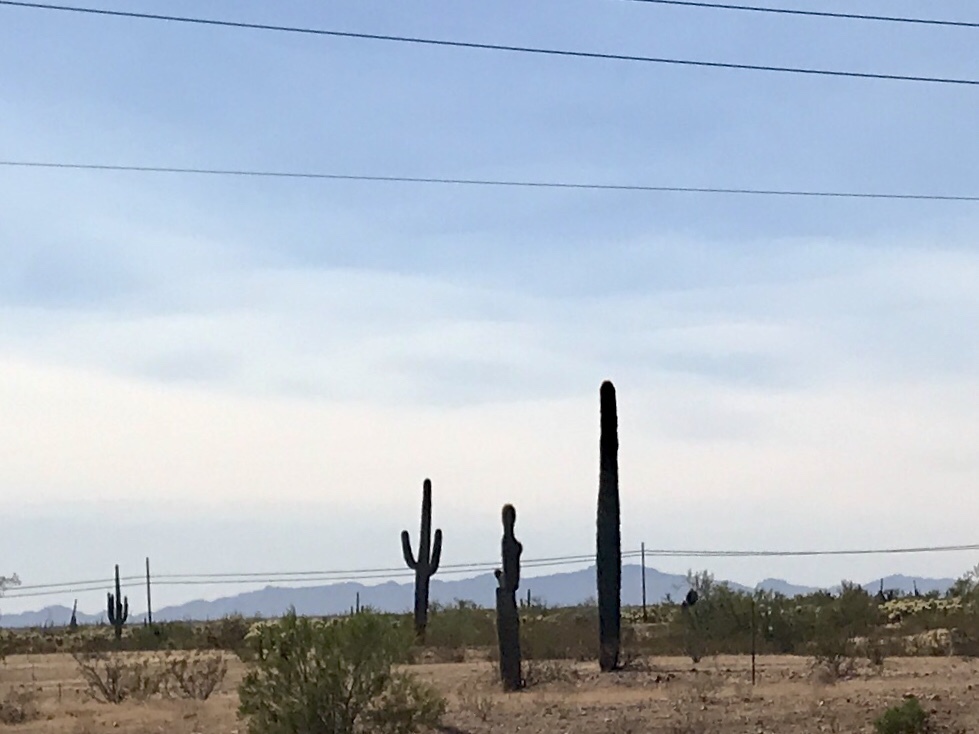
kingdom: Plantae
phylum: Tracheophyta
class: Magnoliopsida
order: Caryophyllales
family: Cactaceae
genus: Carnegiea
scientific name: Carnegiea gigantea
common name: Saguaro
